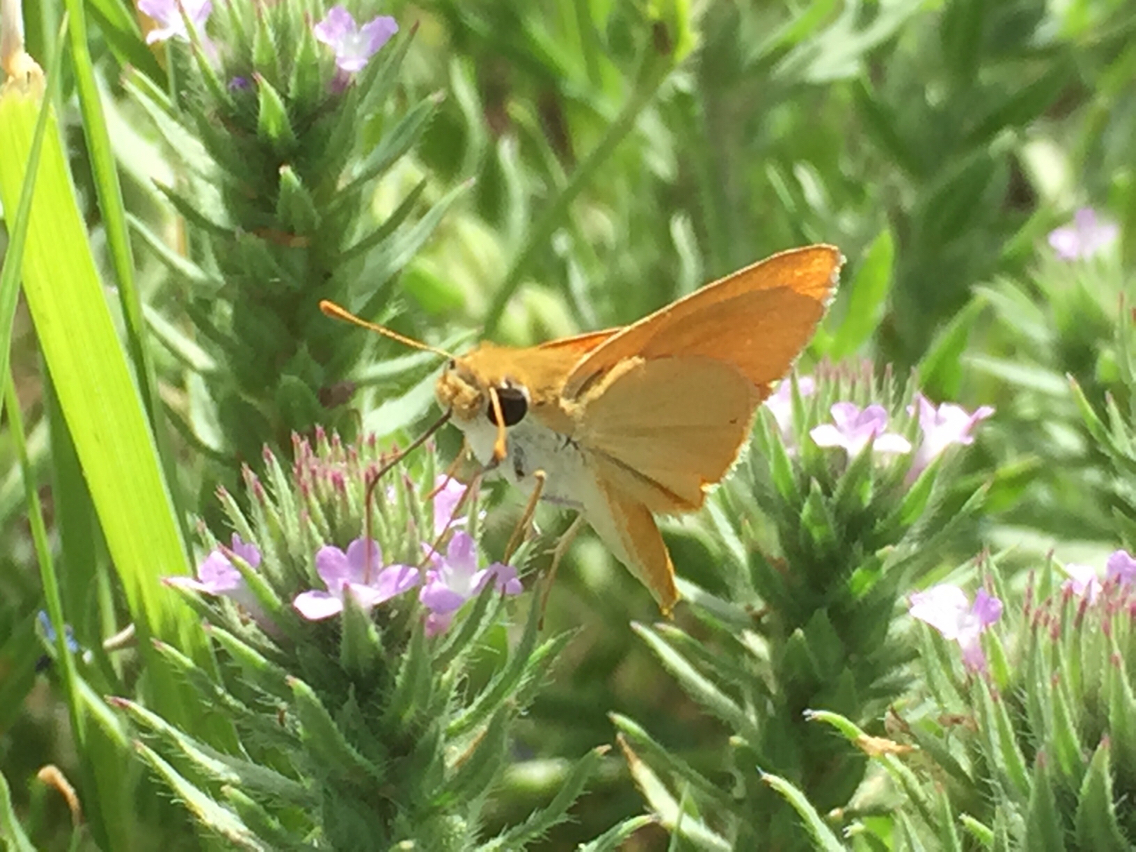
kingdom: Animalia
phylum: Arthropoda
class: Insecta
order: Lepidoptera
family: Hesperiidae
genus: Copaeodes
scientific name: Copaeodes aurantiaca
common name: Orange skipperling
